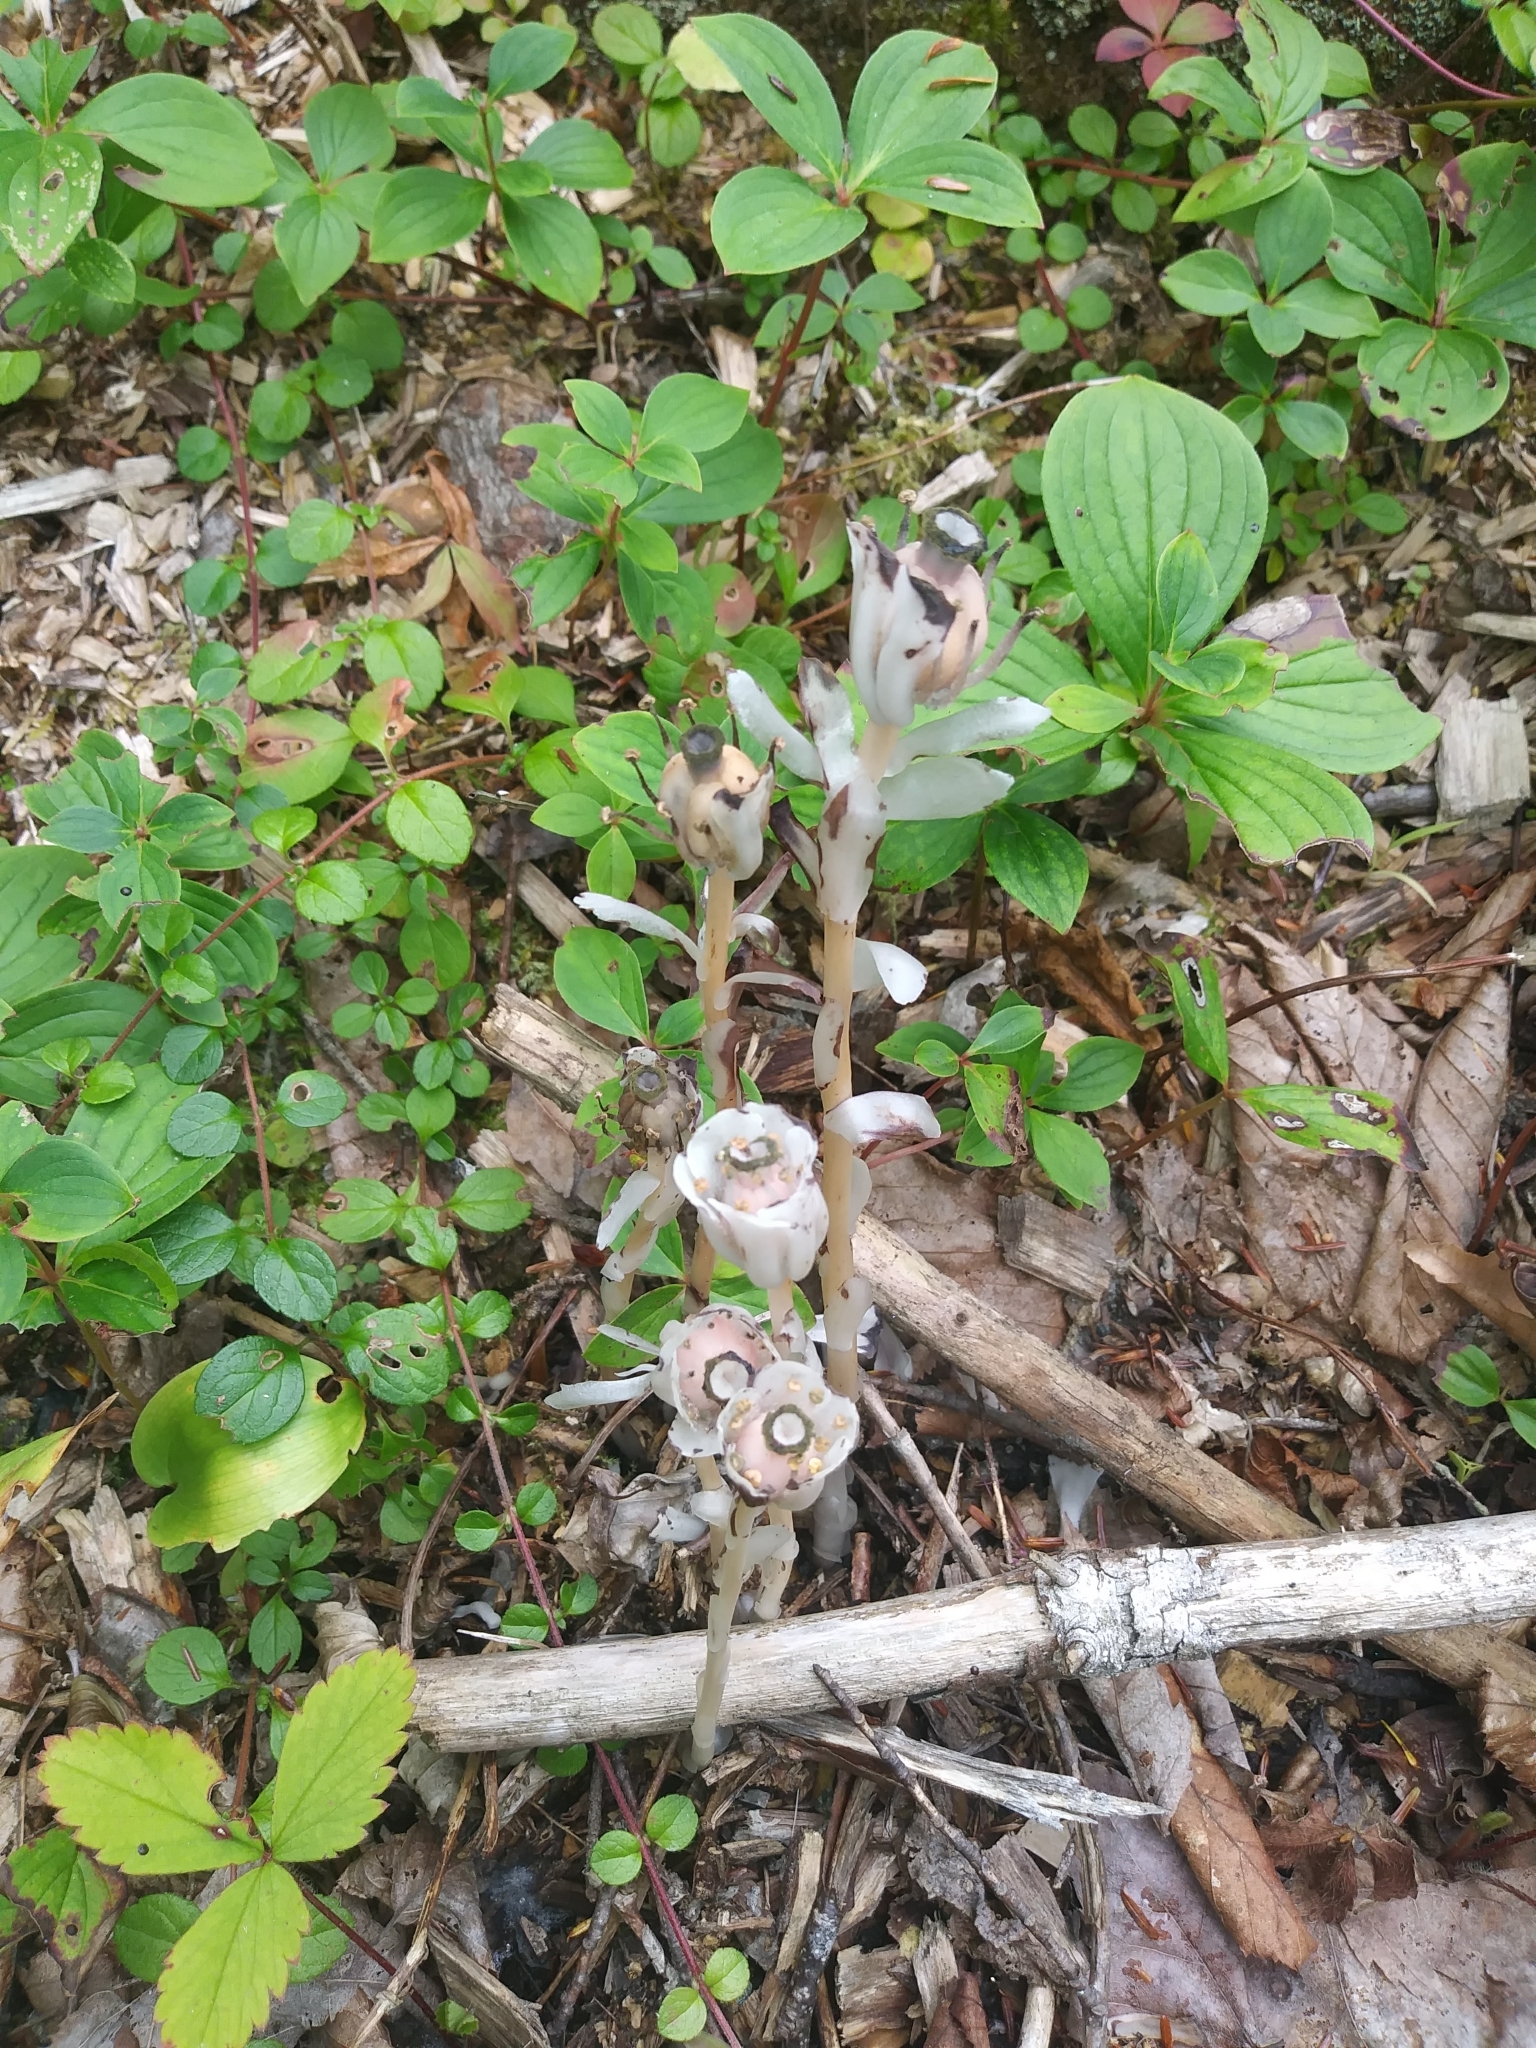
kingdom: Plantae
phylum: Tracheophyta
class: Magnoliopsida
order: Ericales
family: Ericaceae
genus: Monotropa
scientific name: Monotropa uniflora
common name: Convulsion root
